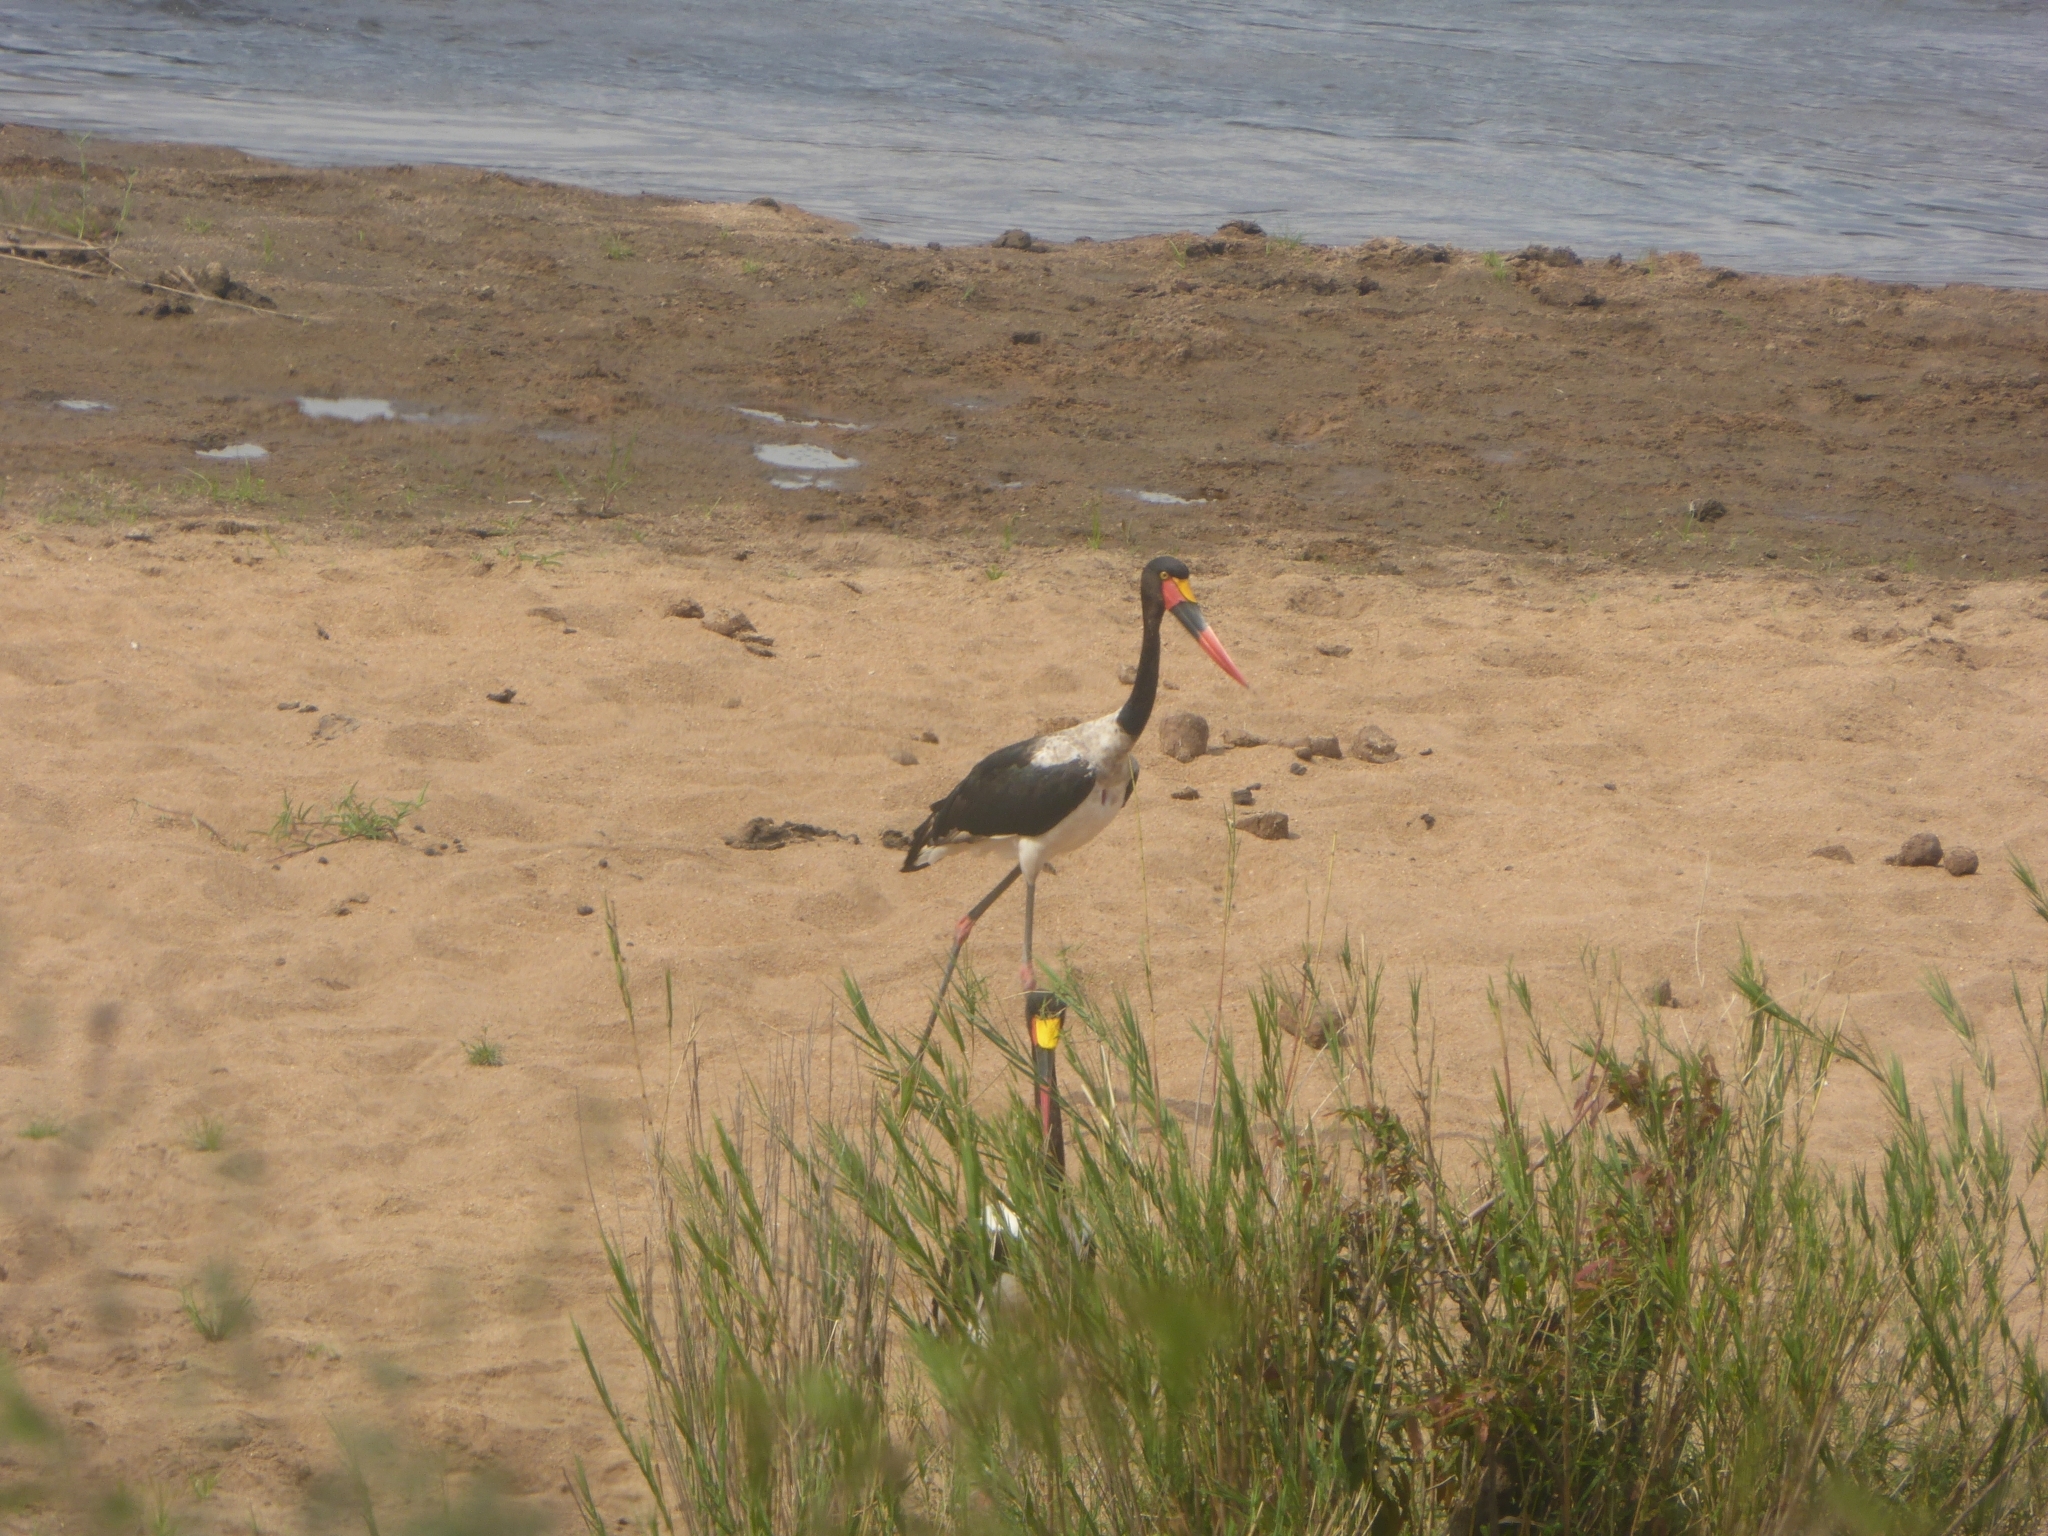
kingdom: Animalia
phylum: Chordata
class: Aves
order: Ciconiiformes
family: Ciconiidae
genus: Ephippiorhynchus
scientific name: Ephippiorhynchus senegalensis
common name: Saddle-billed stork
